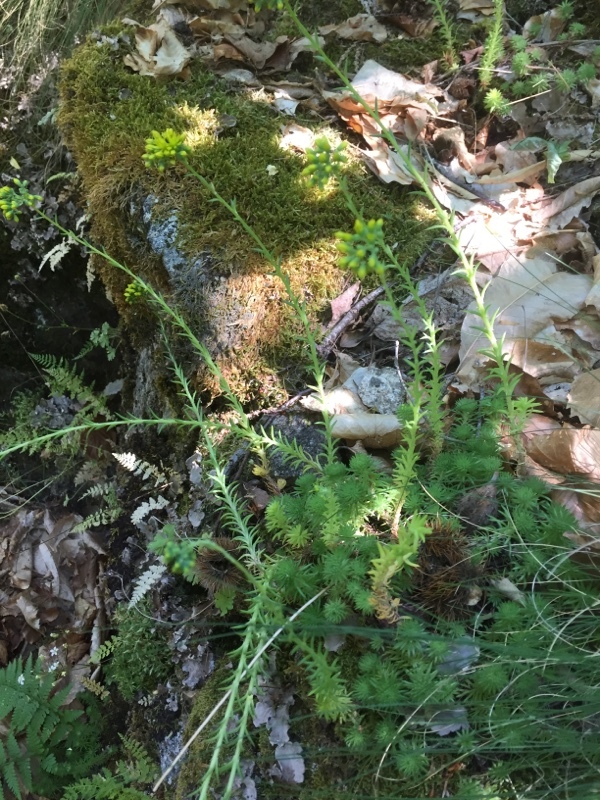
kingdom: Plantae
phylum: Tracheophyta
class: Magnoliopsida
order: Saxifragales
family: Crassulaceae
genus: Petrosedum
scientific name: Petrosedum forsterianum
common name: Forster's stonecrop
